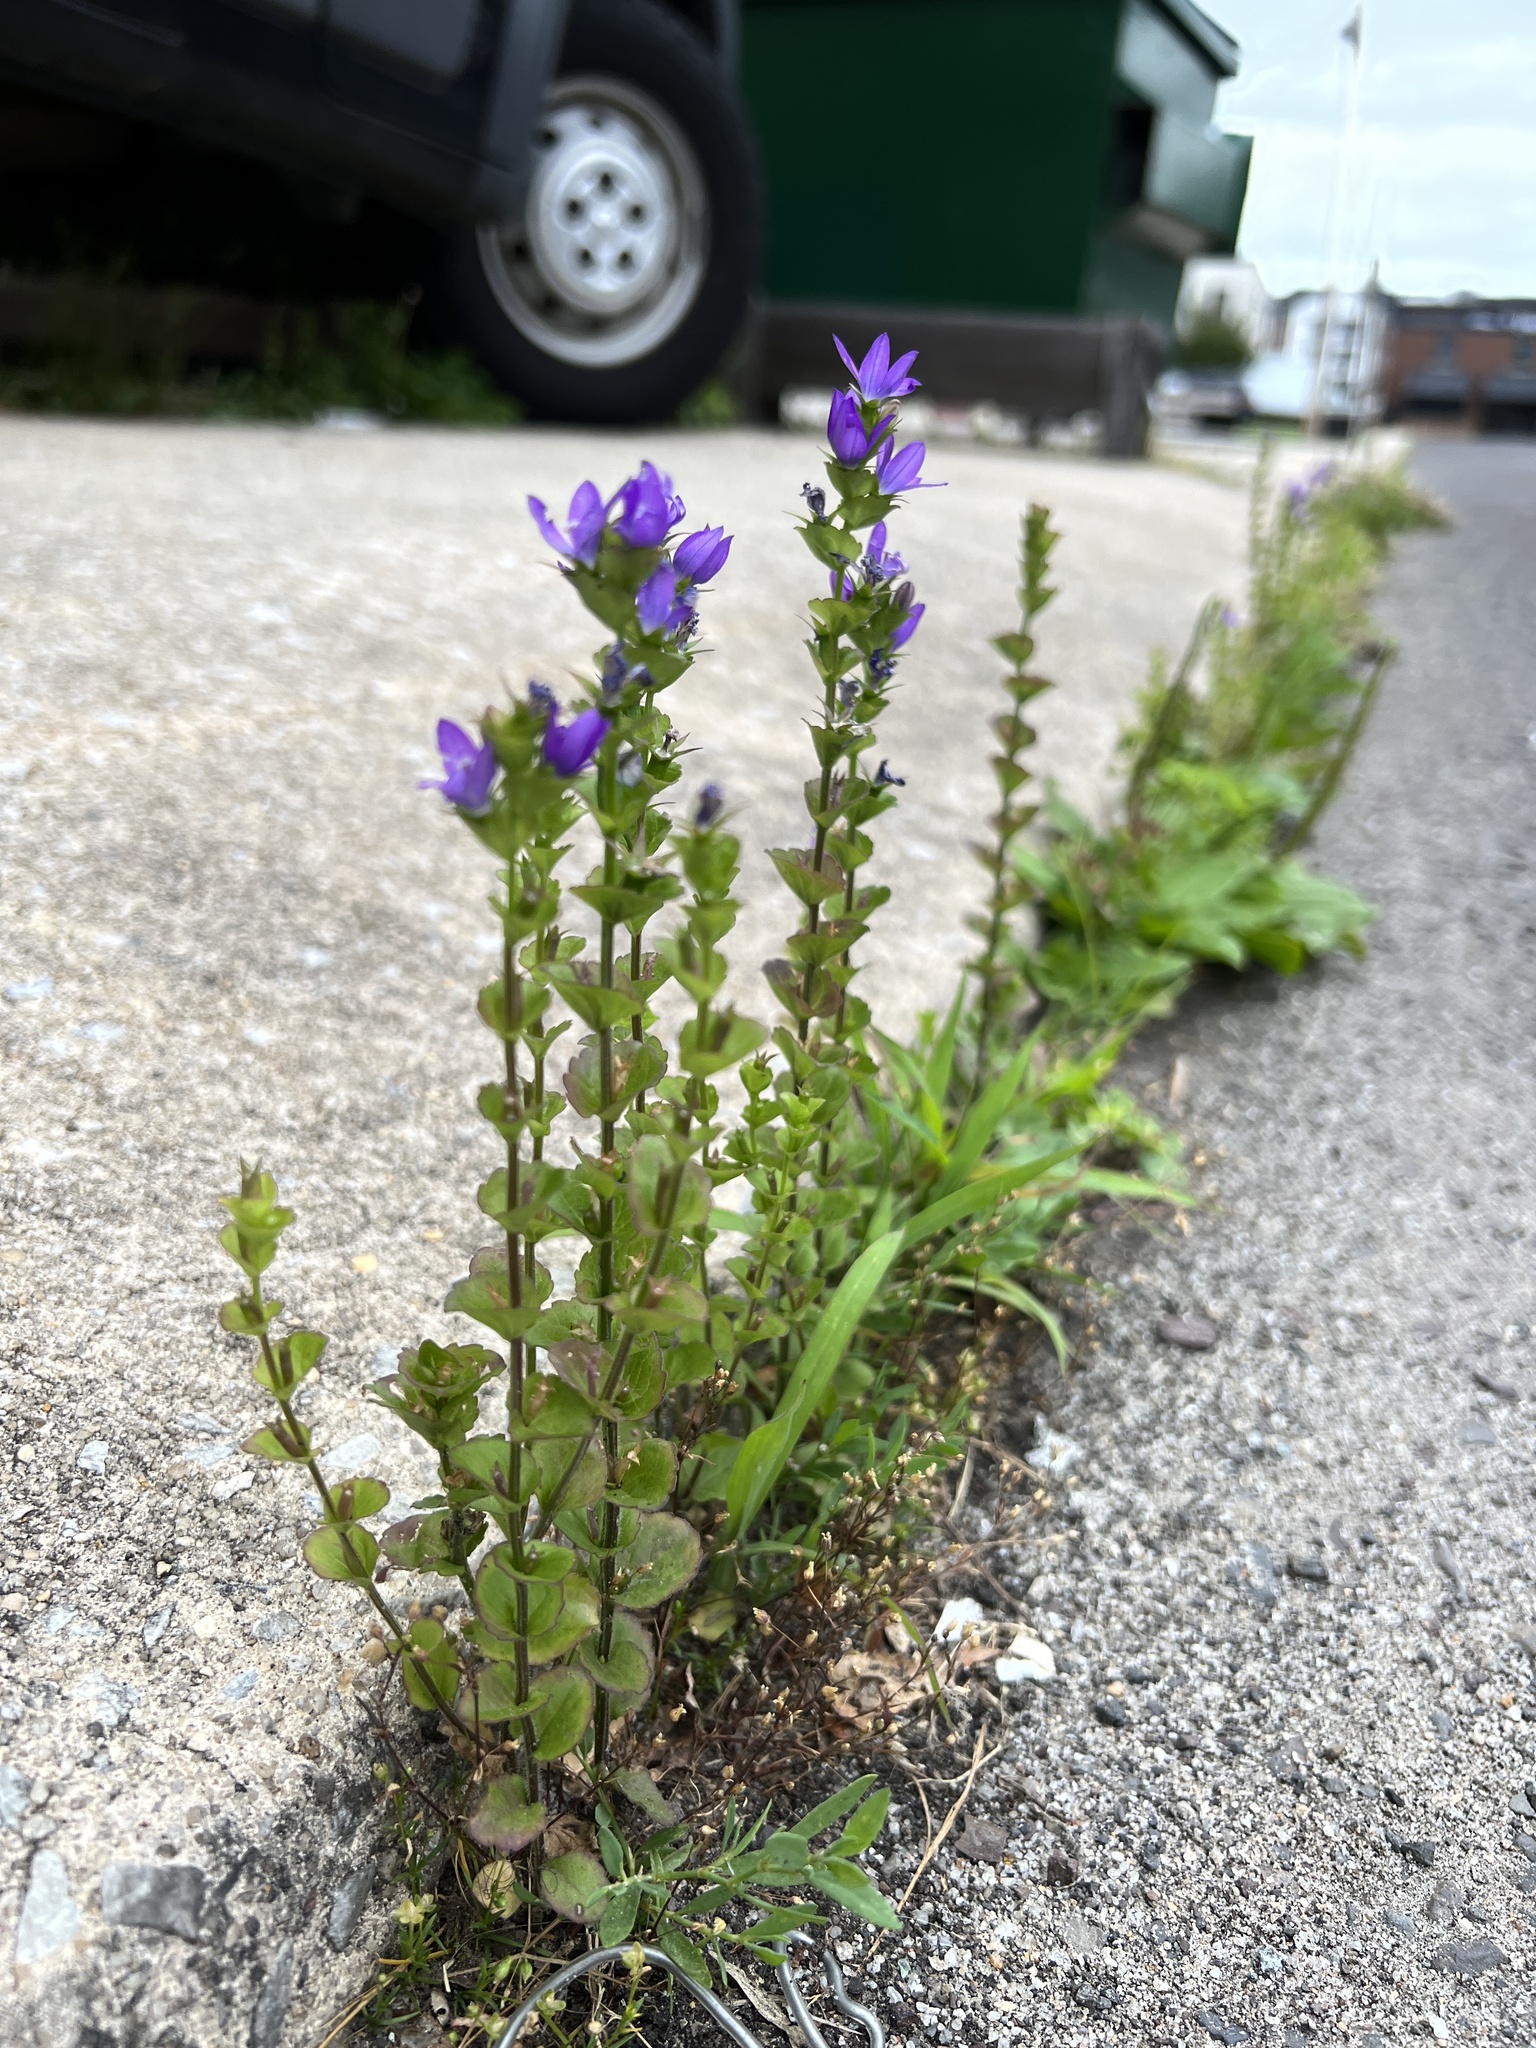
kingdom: Plantae
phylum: Tracheophyta
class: Magnoliopsida
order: Asterales
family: Campanulaceae
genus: Triodanis
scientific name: Triodanis perfoliata
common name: Clasping venus' looking-glass
